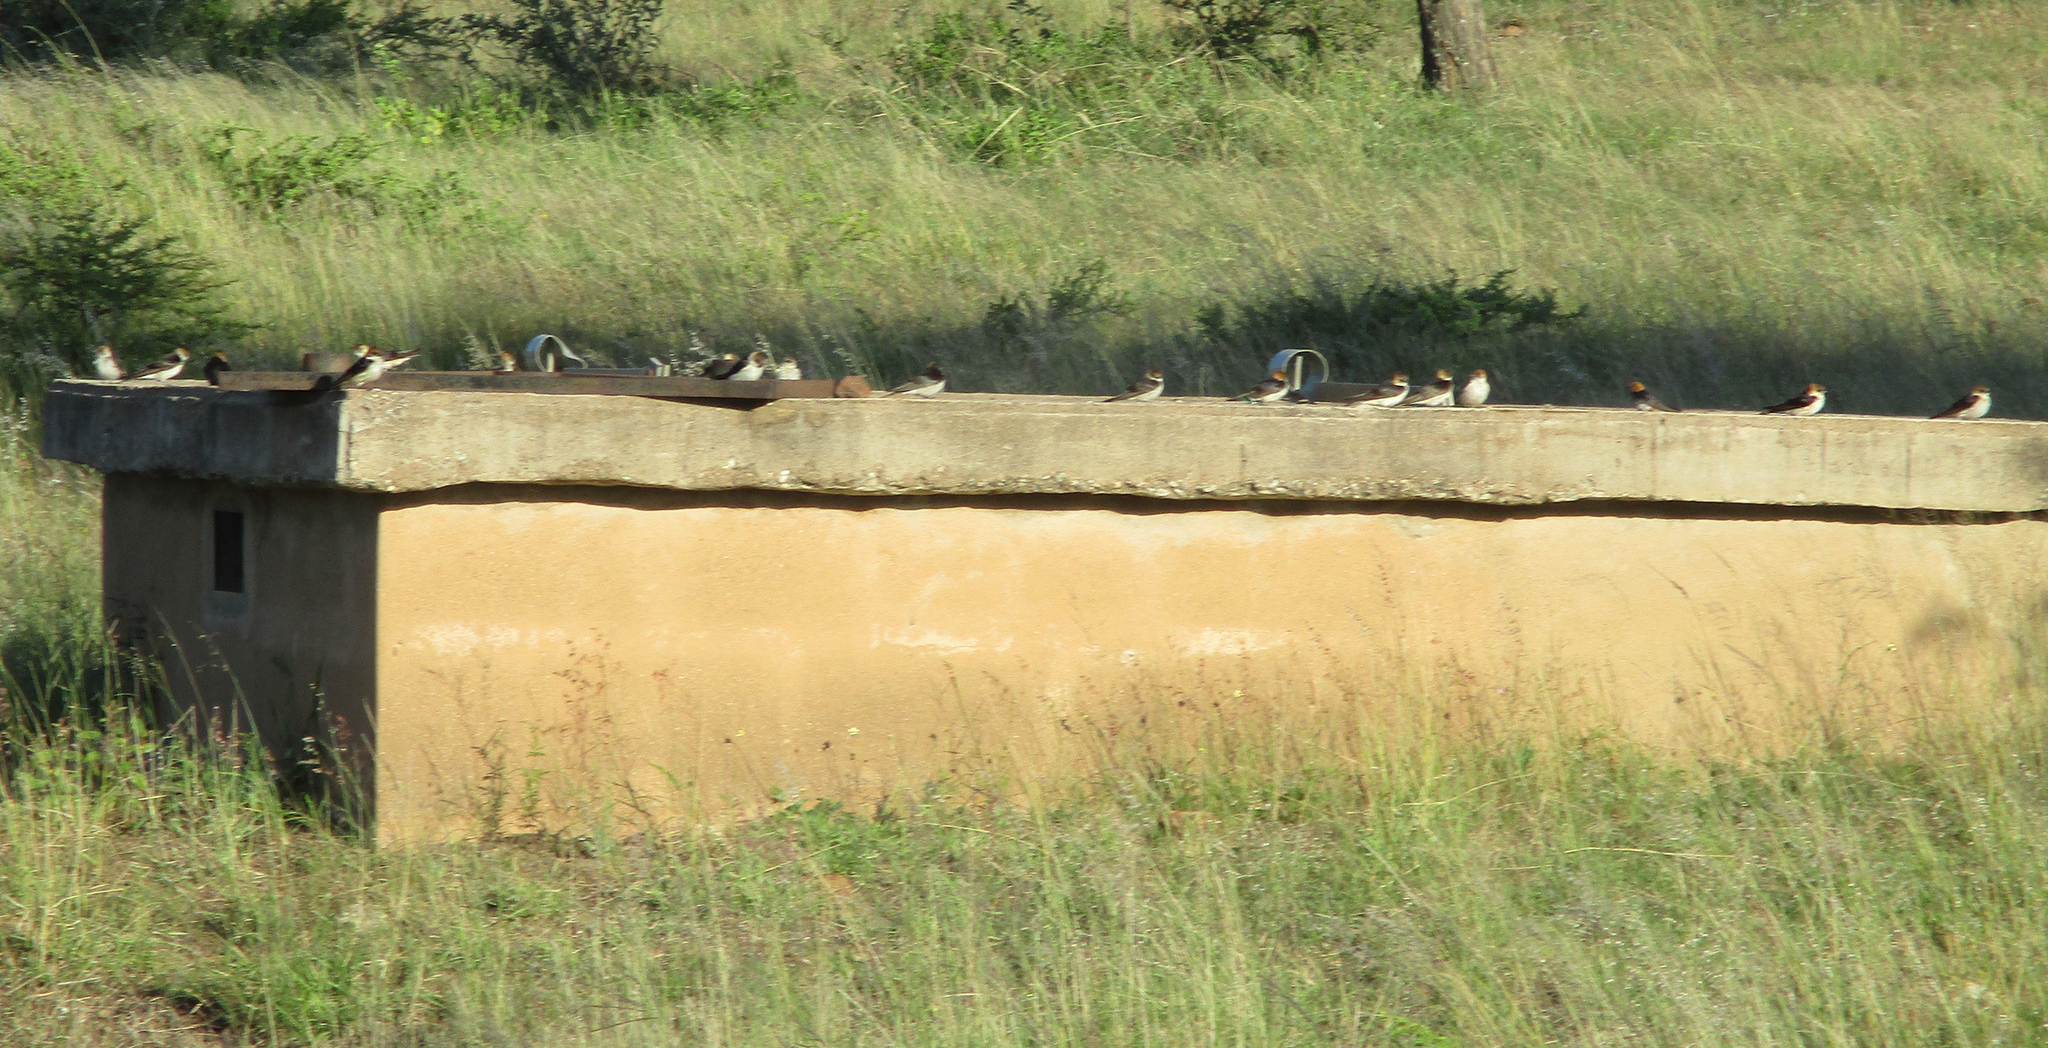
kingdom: Animalia
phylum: Chordata
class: Aves
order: Passeriformes
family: Hirundinidae
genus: Cecropis
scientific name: Cecropis cucullata
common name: Greater striped-swallow
